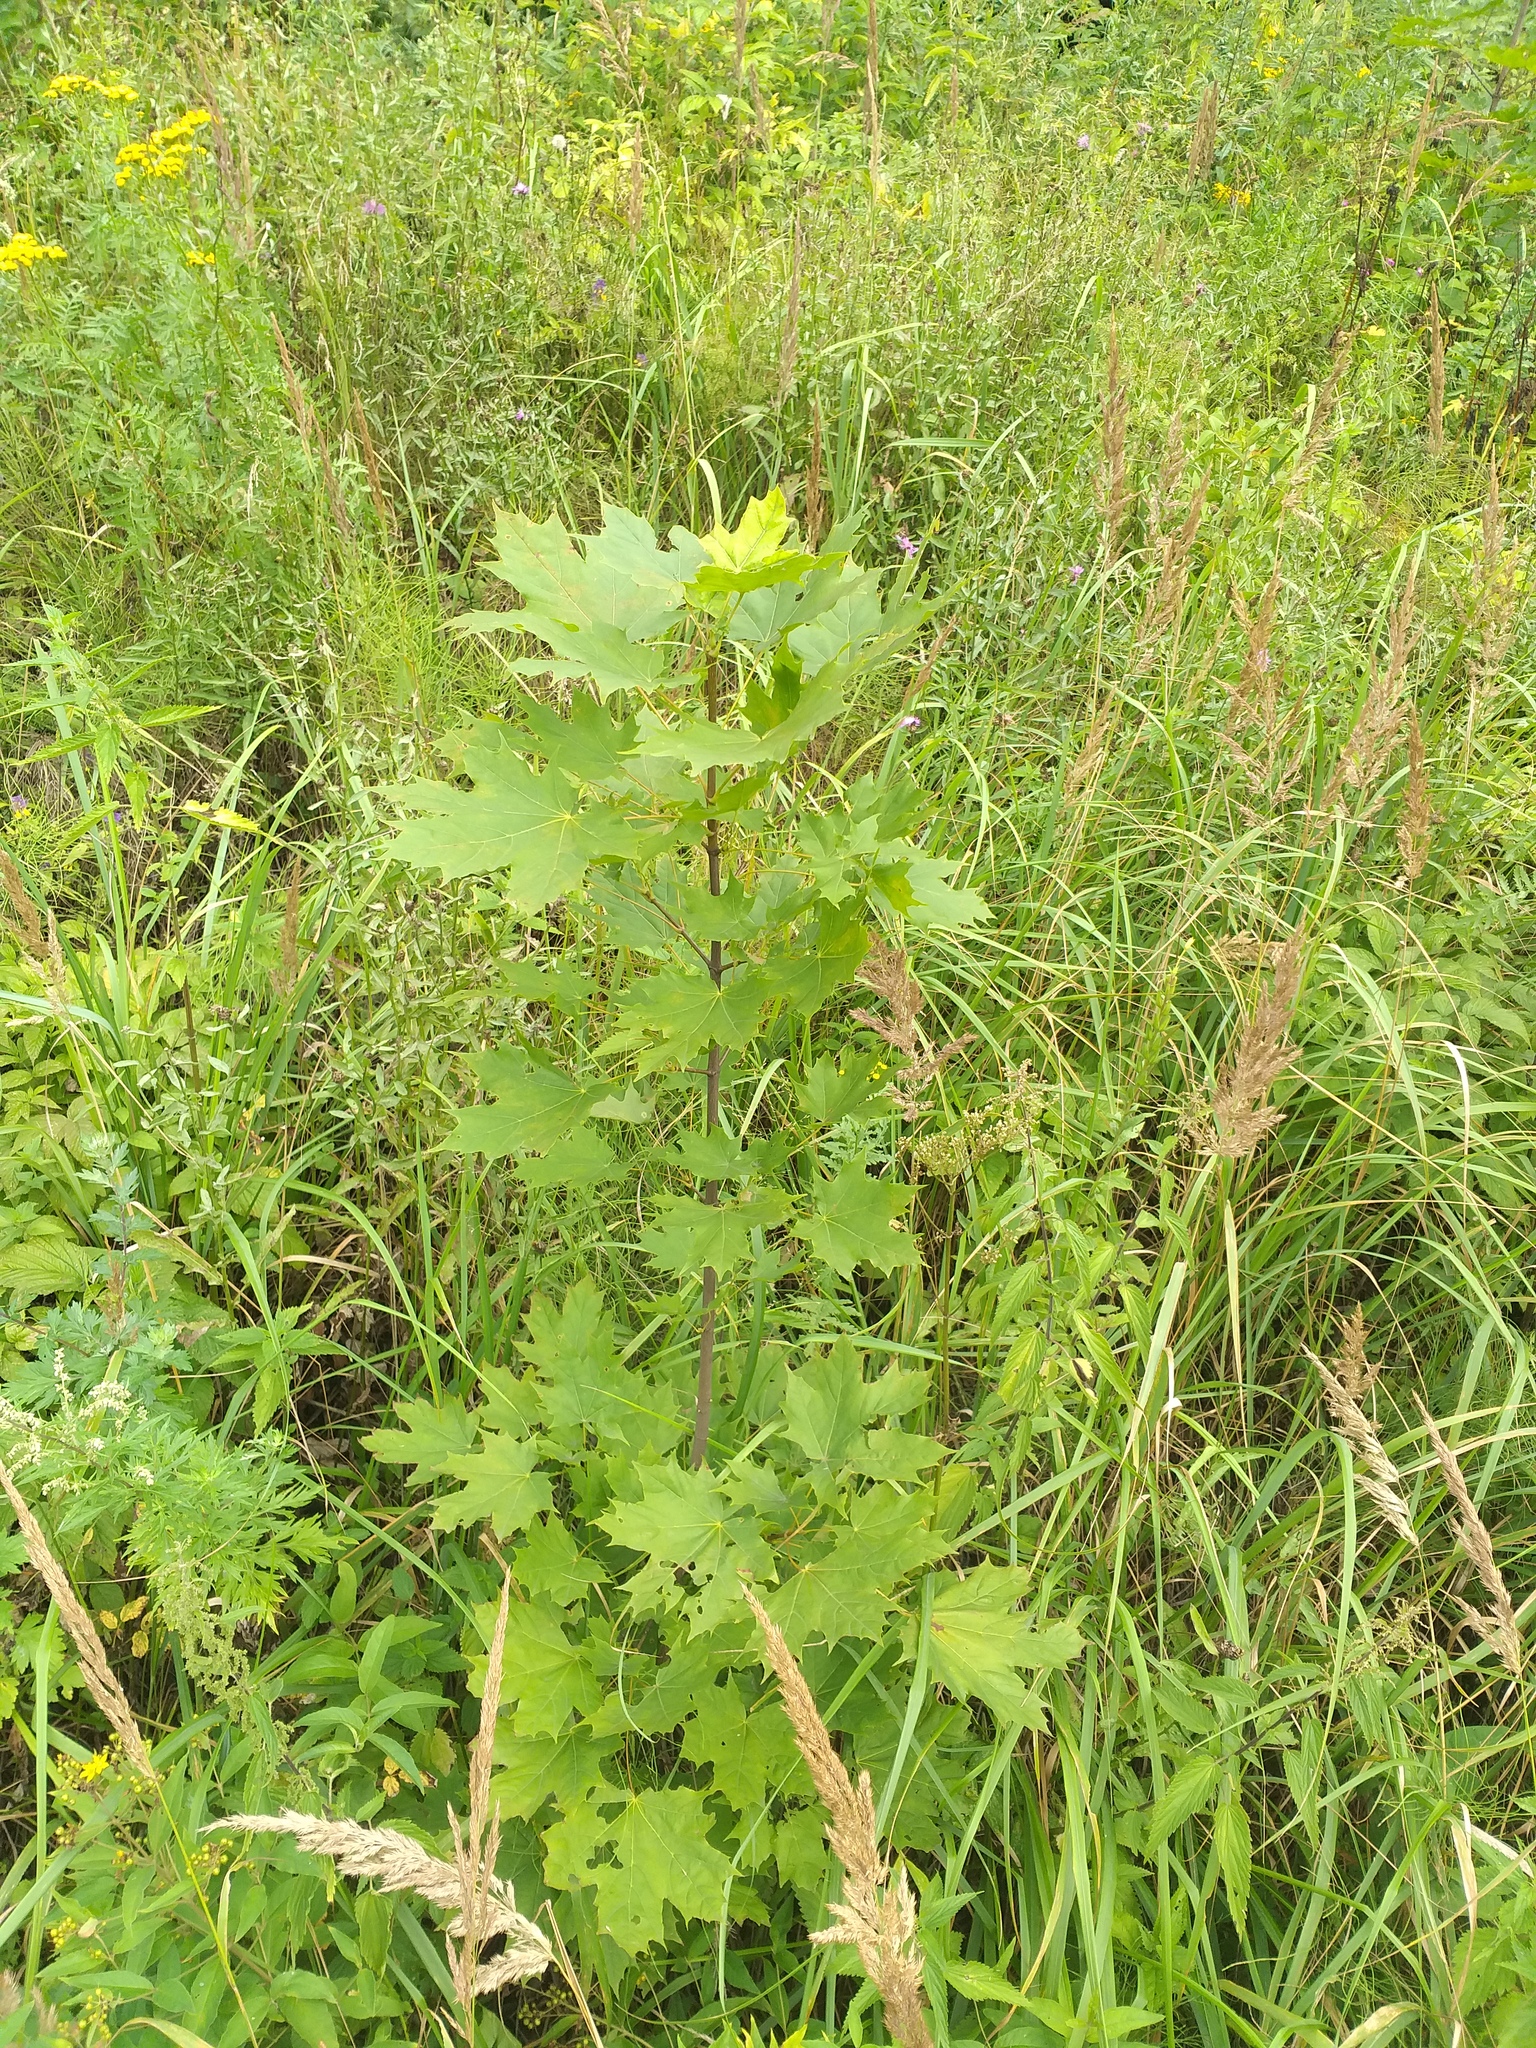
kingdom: Plantae
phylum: Tracheophyta
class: Magnoliopsida
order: Sapindales
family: Sapindaceae
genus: Acer
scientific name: Acer platanoides
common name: Norway maple
